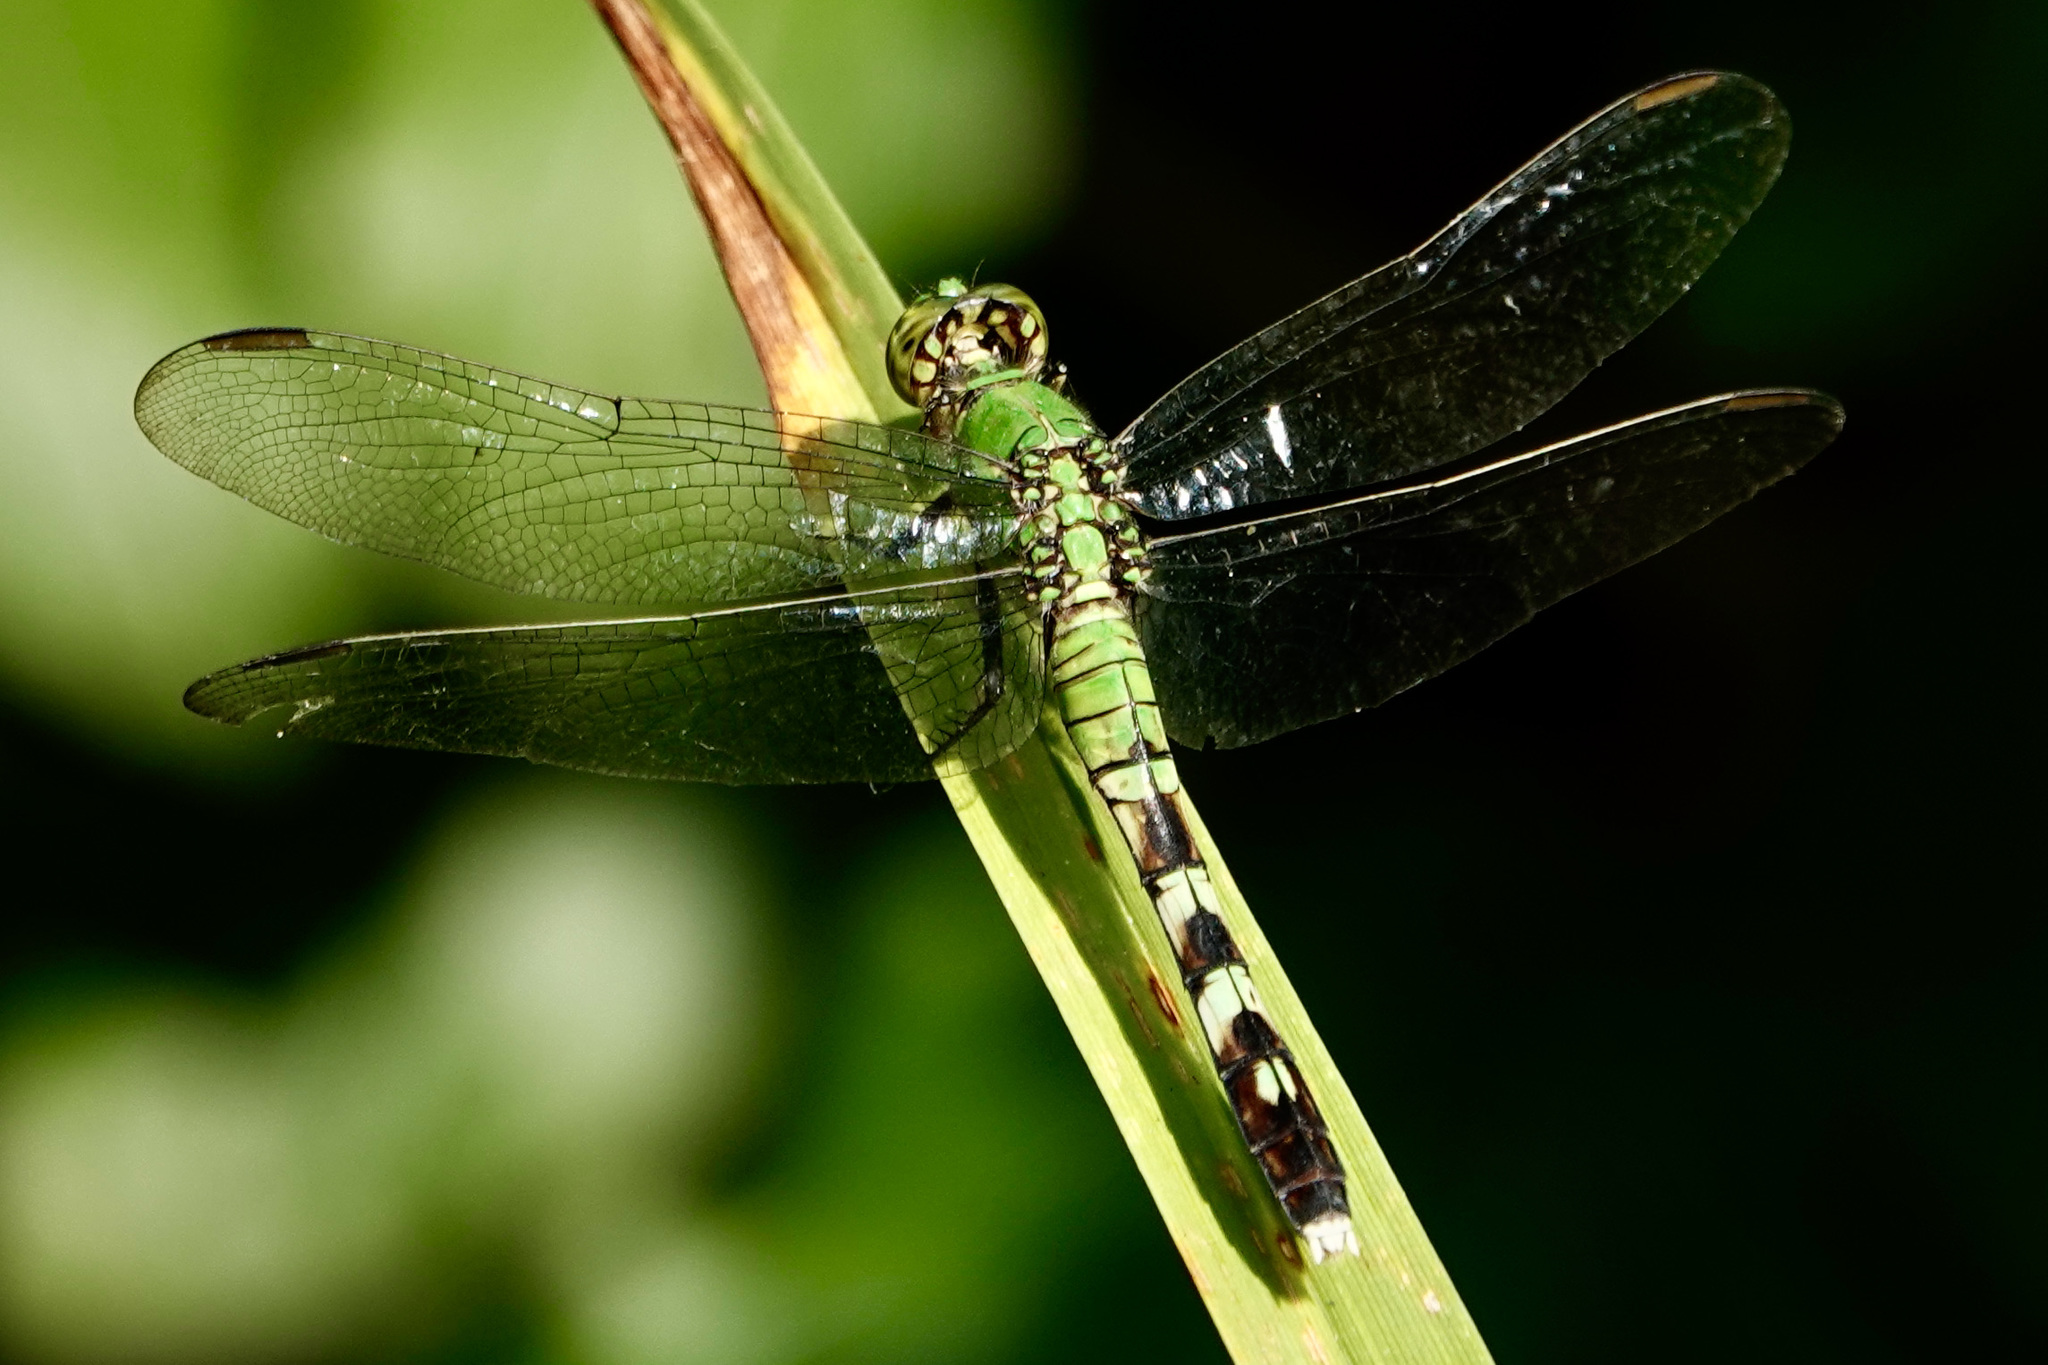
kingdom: Animalia
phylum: Arthropoda
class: Insecta
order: Odonata
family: Libellulidae
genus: Erythemis
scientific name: Erythemis simplicicollis
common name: Eastern pondhawk
